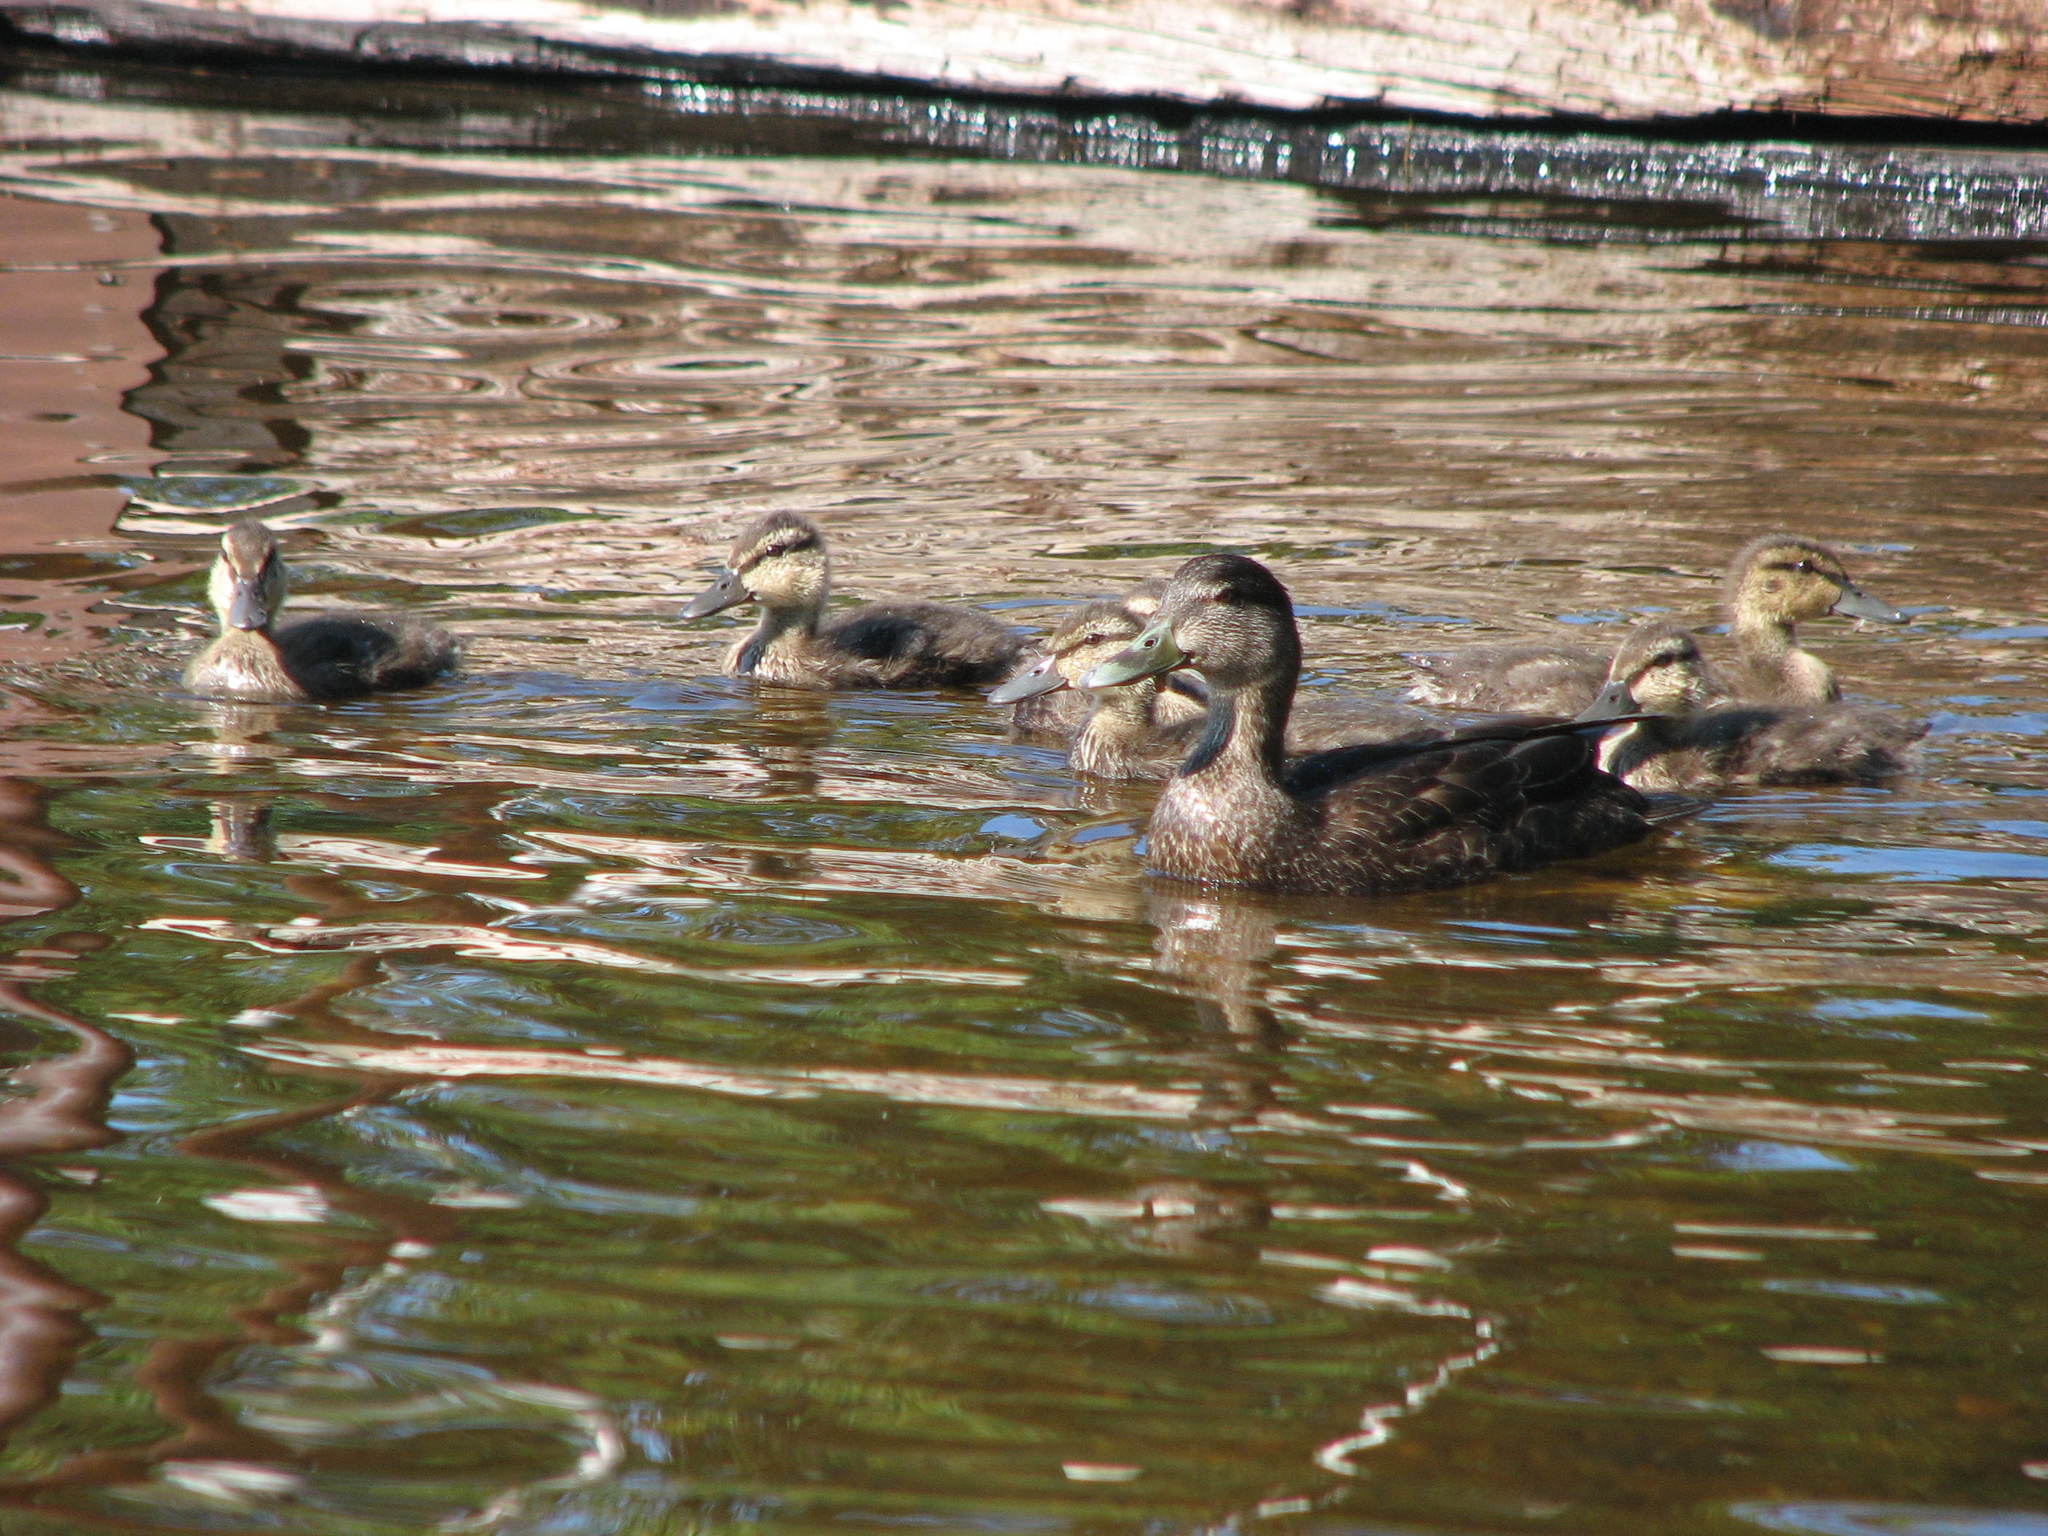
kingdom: Animalia
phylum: Chordata
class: Aves
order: Anseriformes
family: Anatidae
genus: Anas
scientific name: Anas rubripes
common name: American black duck
